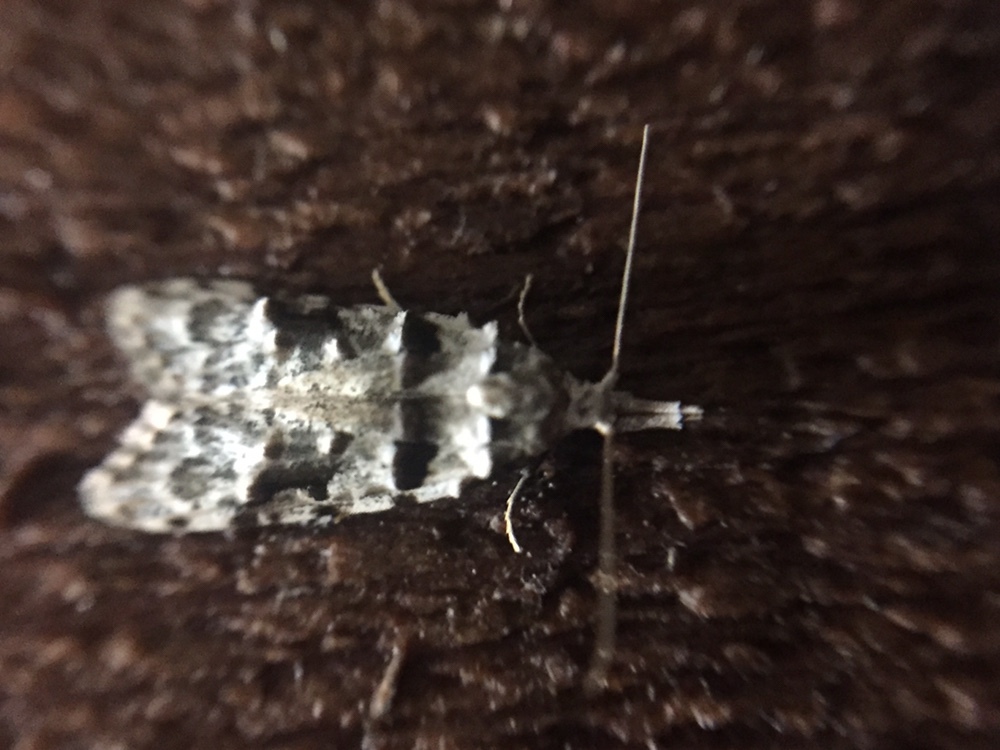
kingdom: Animalia
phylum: Arthropoda
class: Insecta
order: Lepidoptera
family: Carposinidae
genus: Coscinoptycha
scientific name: Coscinoptycha improbana
